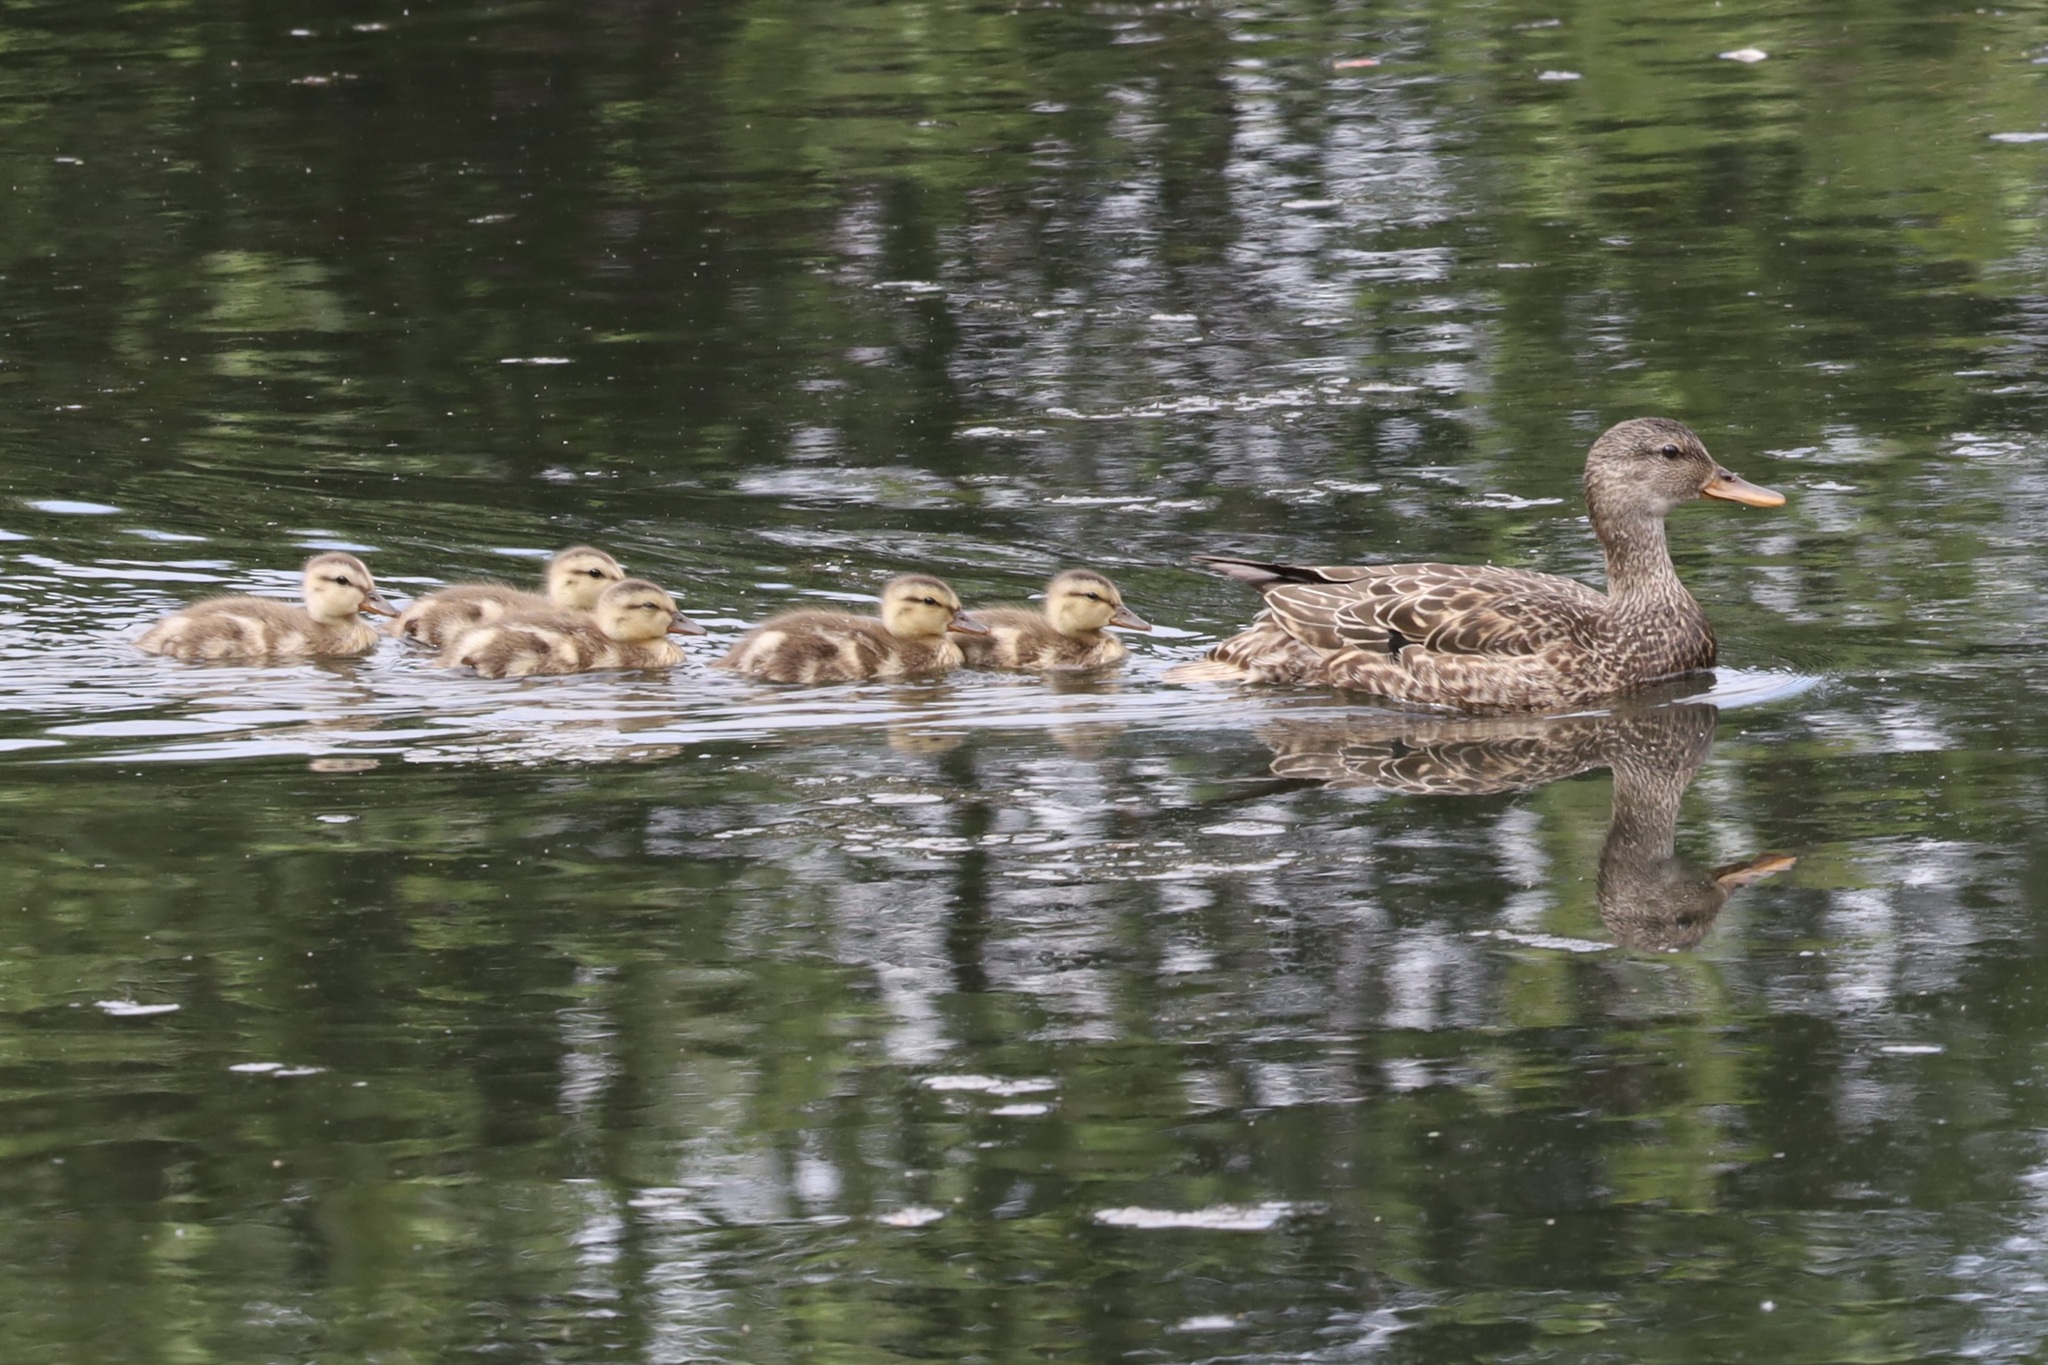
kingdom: Animalia
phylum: Chordata
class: Aves
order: Anseriformes
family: Anatidae
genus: Mareca
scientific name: Mareca strepera
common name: Gadwall
